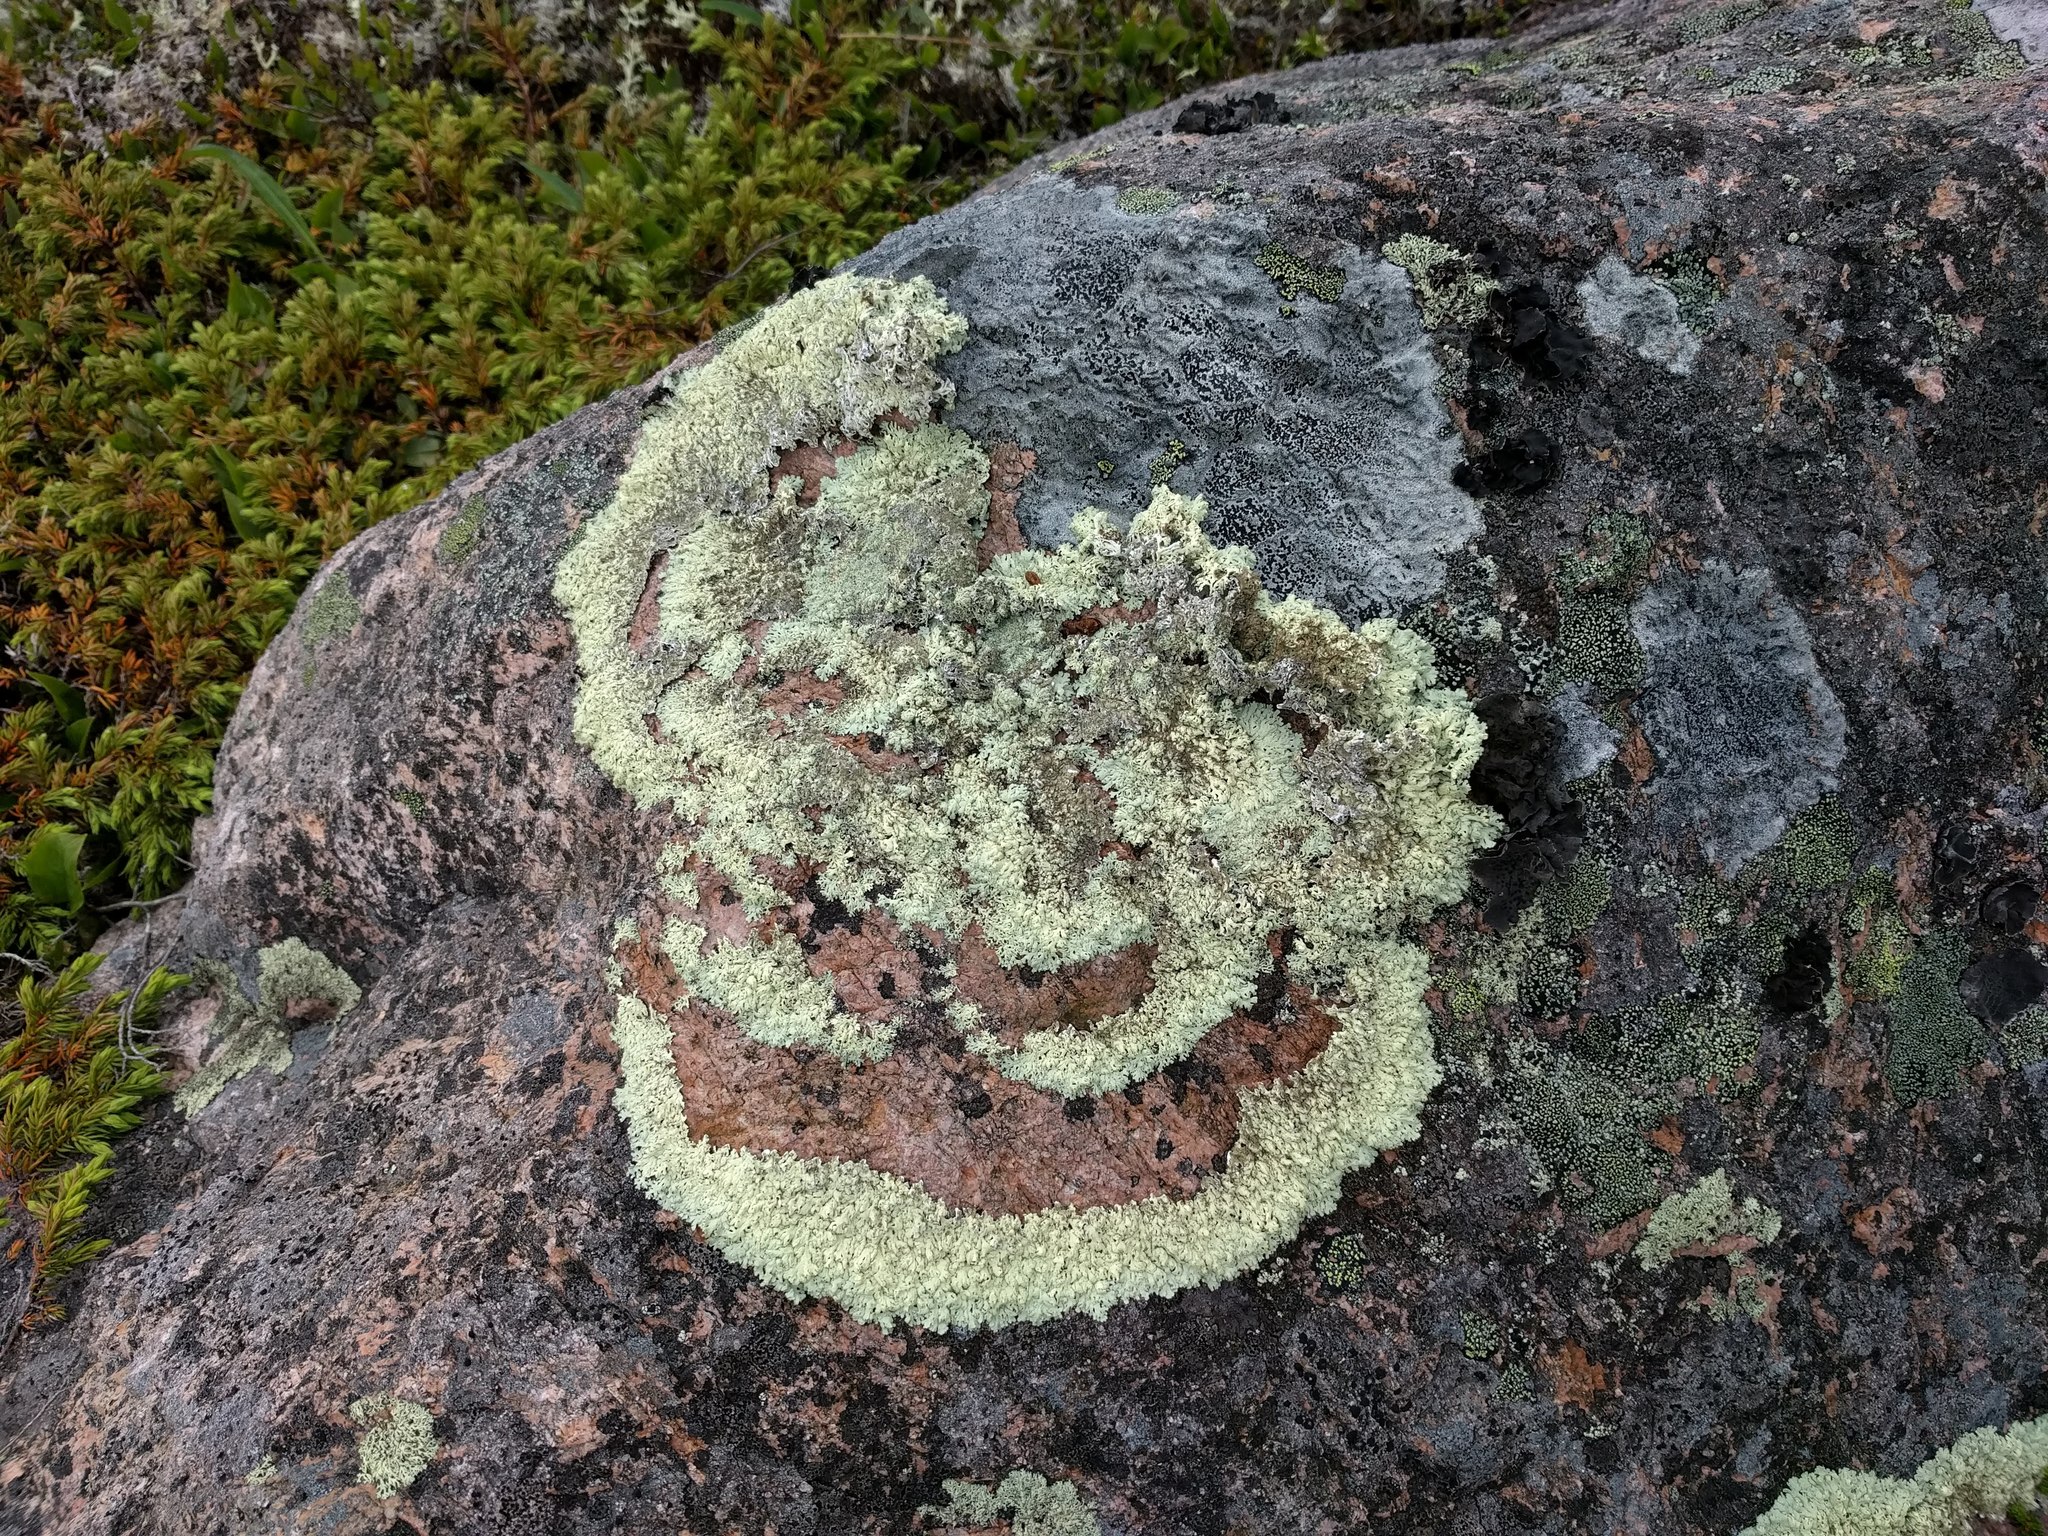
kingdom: Fungi
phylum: Ascomycota
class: Lecanoromycetes
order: Lecanorales
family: Parmeliaceae
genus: Arctoparmelia
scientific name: Arctoparmelia centrifuga
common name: Concentric ring lichen
